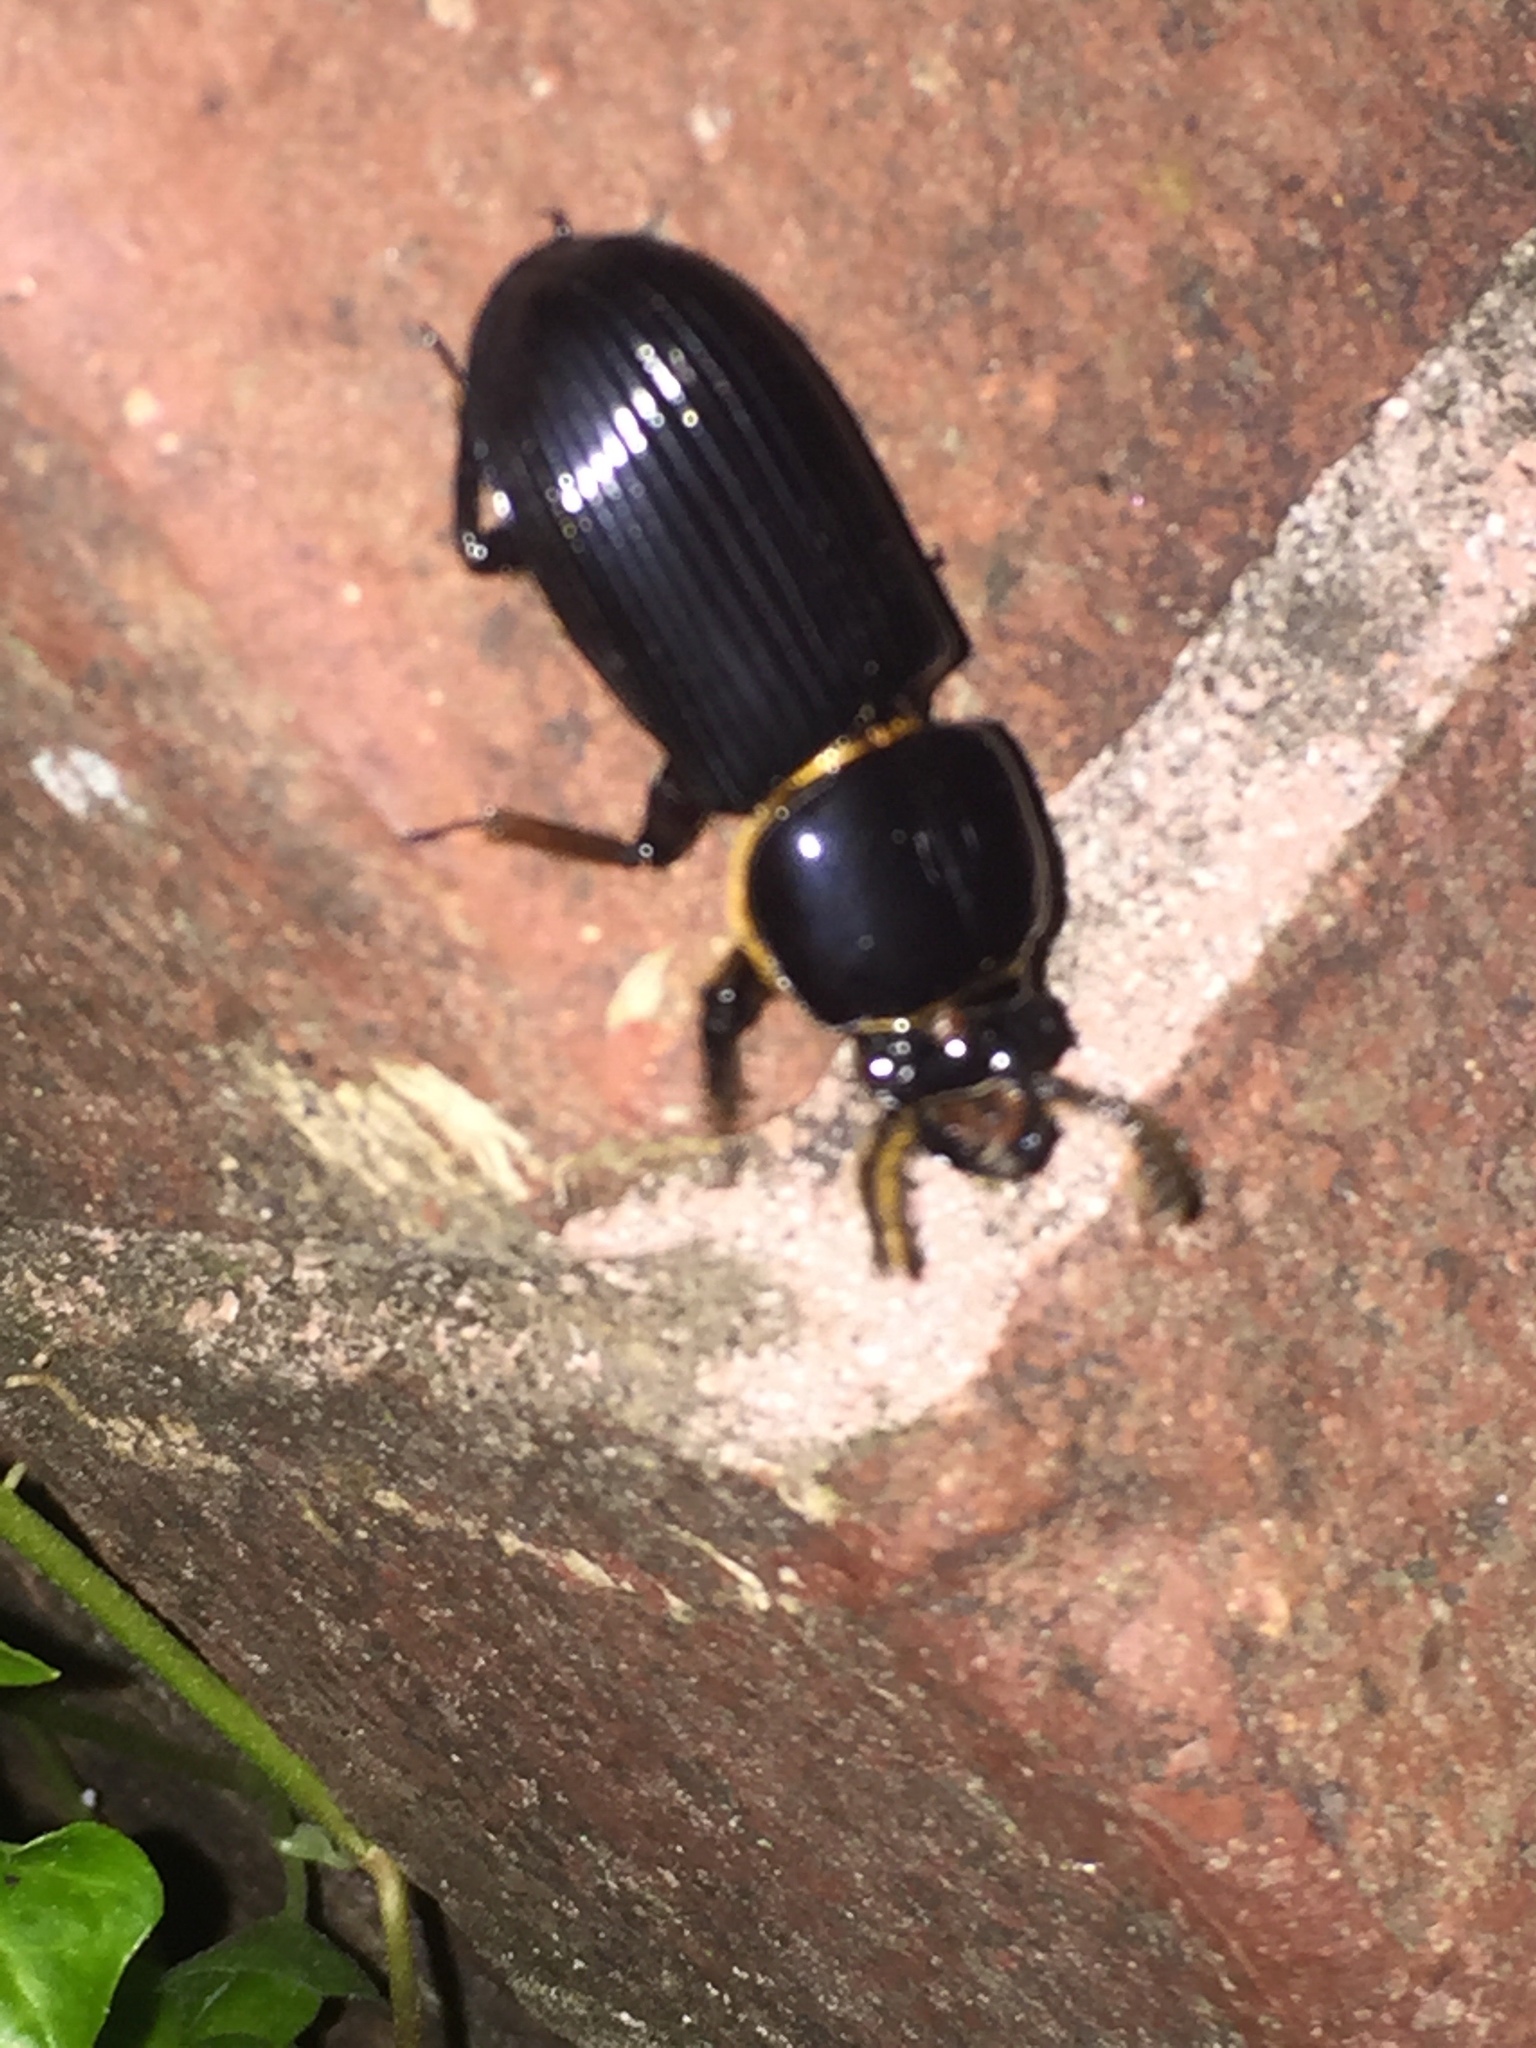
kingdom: Animalia
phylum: Arthropoda
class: Insecta
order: Coleoptera
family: Passalidae
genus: Odontotaenius
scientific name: Odontotaenius disjunctus
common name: Patent leather beetle
